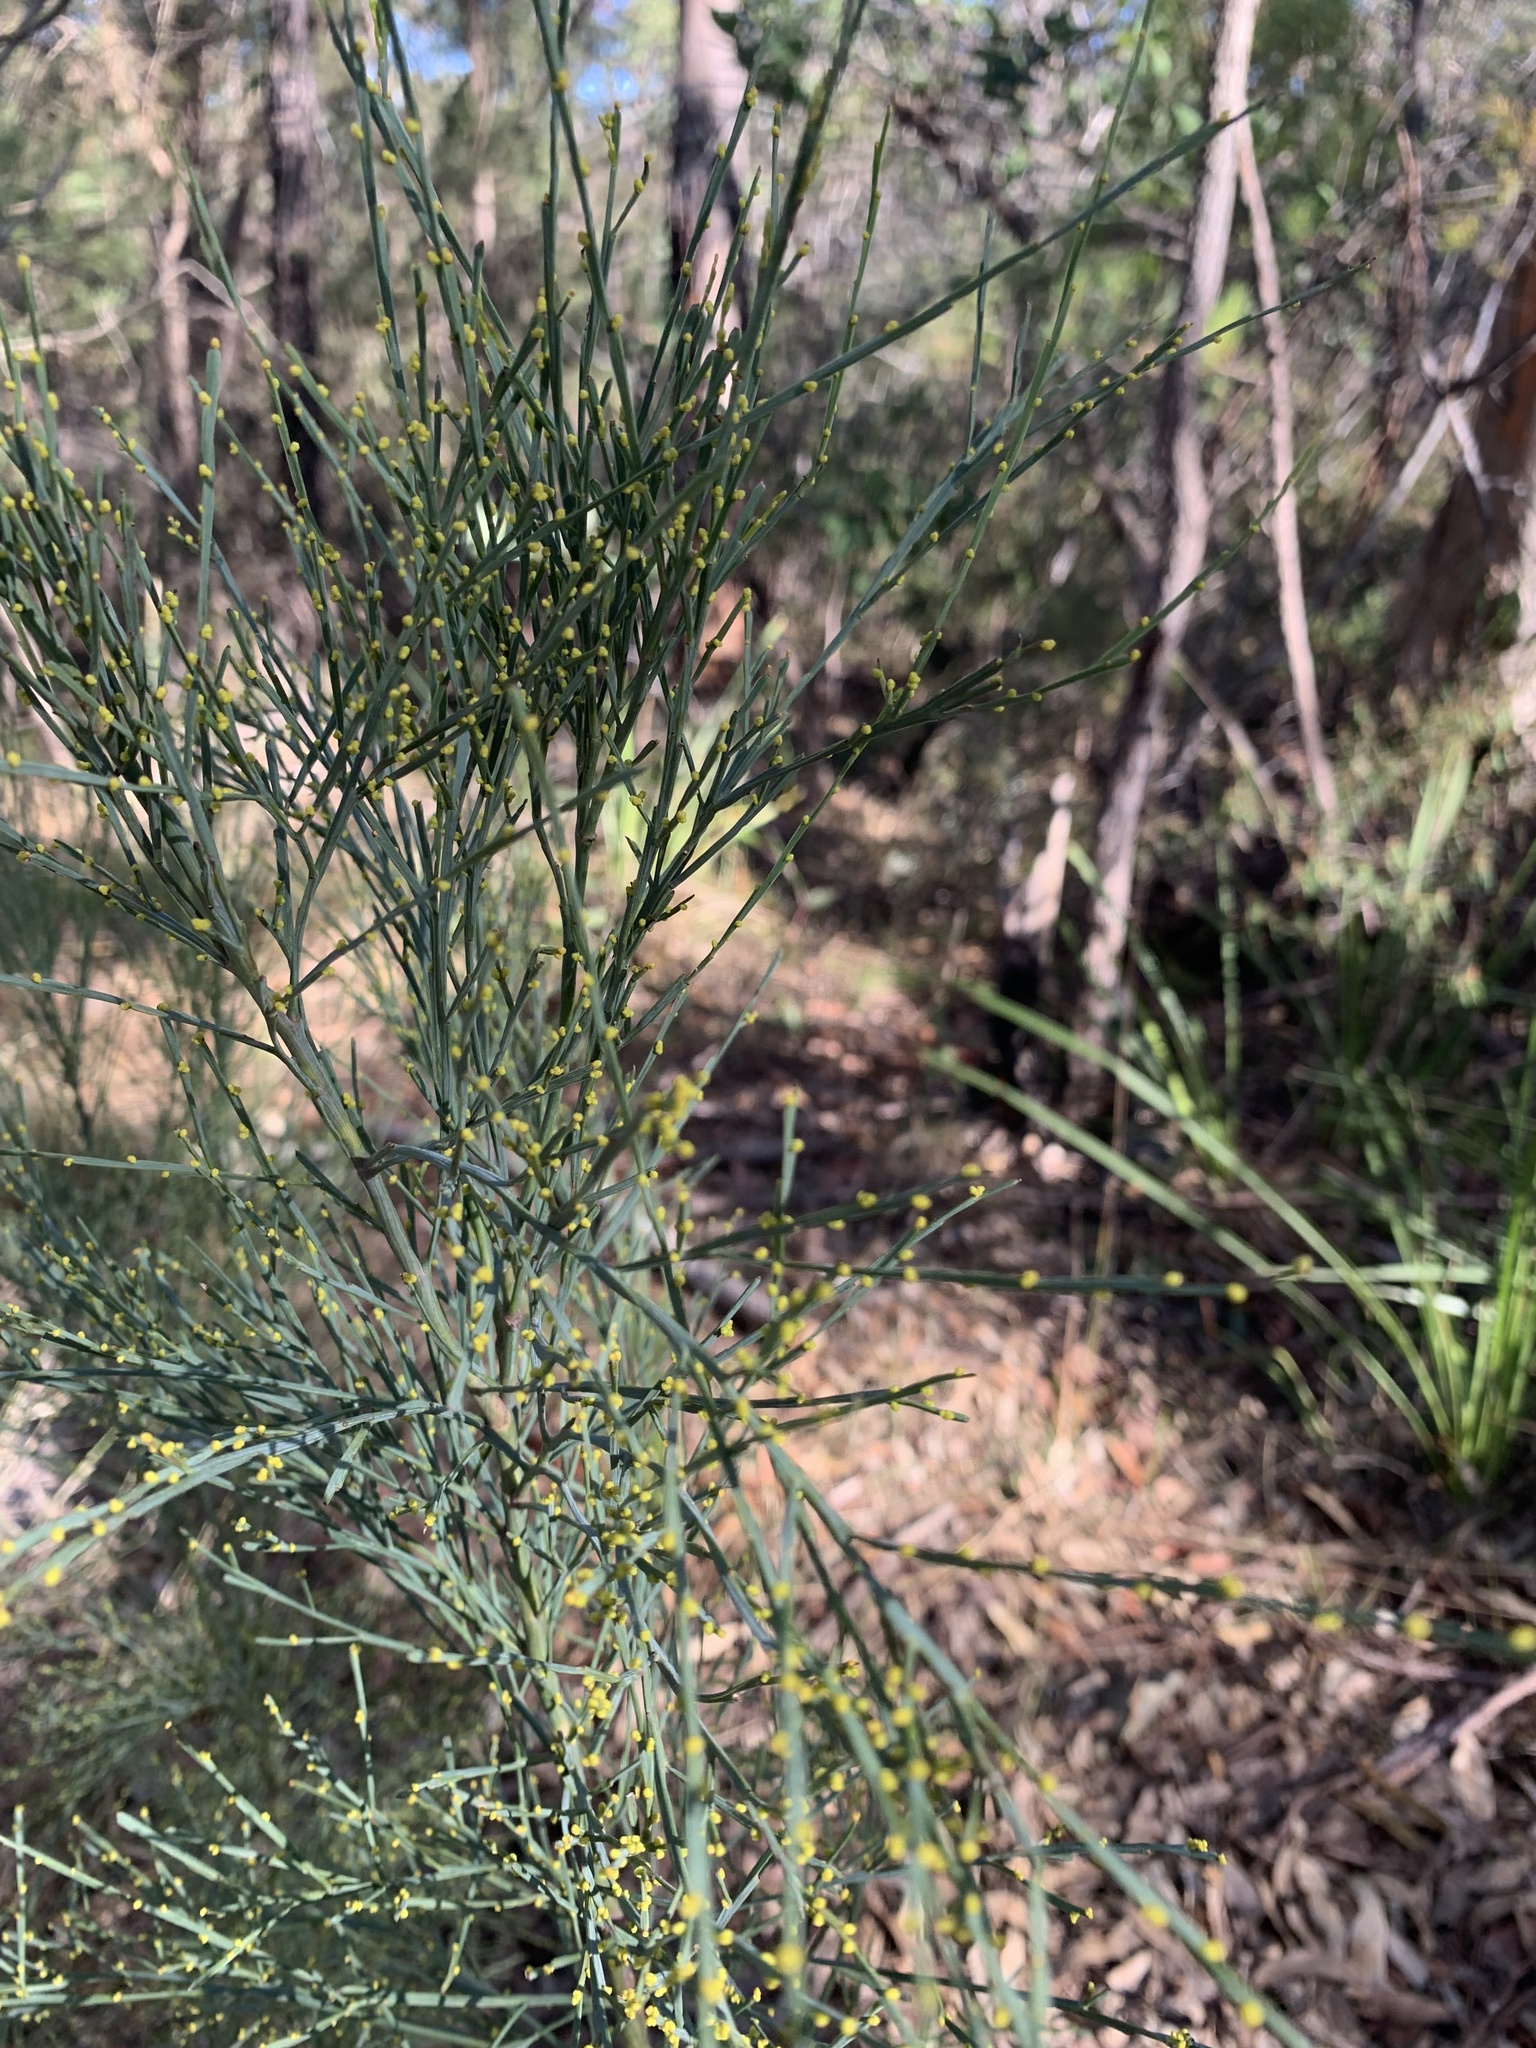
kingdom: Plantae
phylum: Tracheophyta
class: Magnoliopsida
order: Santalales
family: Santalaceae
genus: Exocarpos
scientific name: Exocarpos strictus
